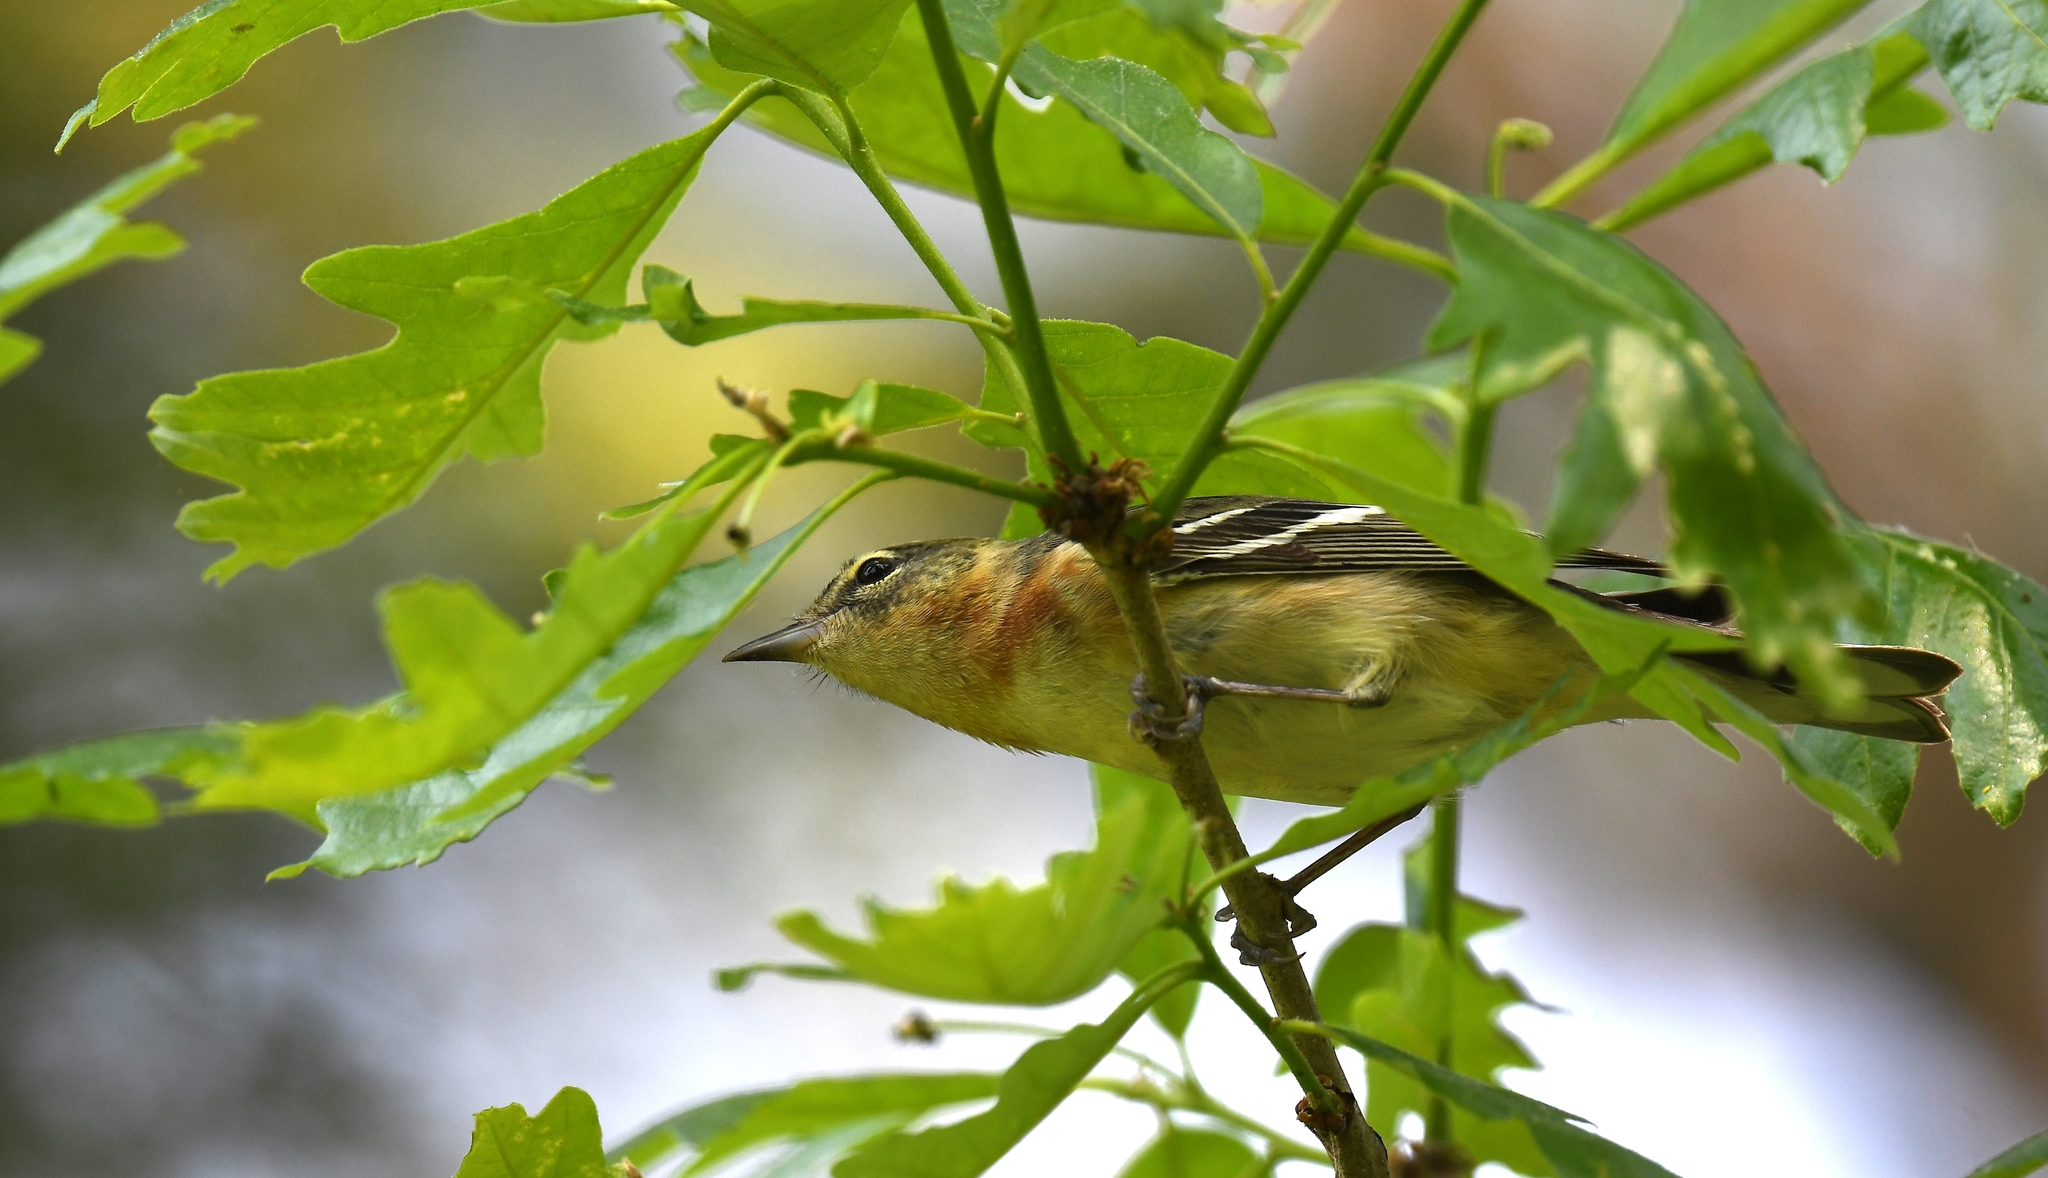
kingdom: Animalia
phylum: Chordata
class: Aves
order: Passeriformes
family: Parulidae
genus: Setophaga
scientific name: Setophaga castanea
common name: Bay-breasted warbler
